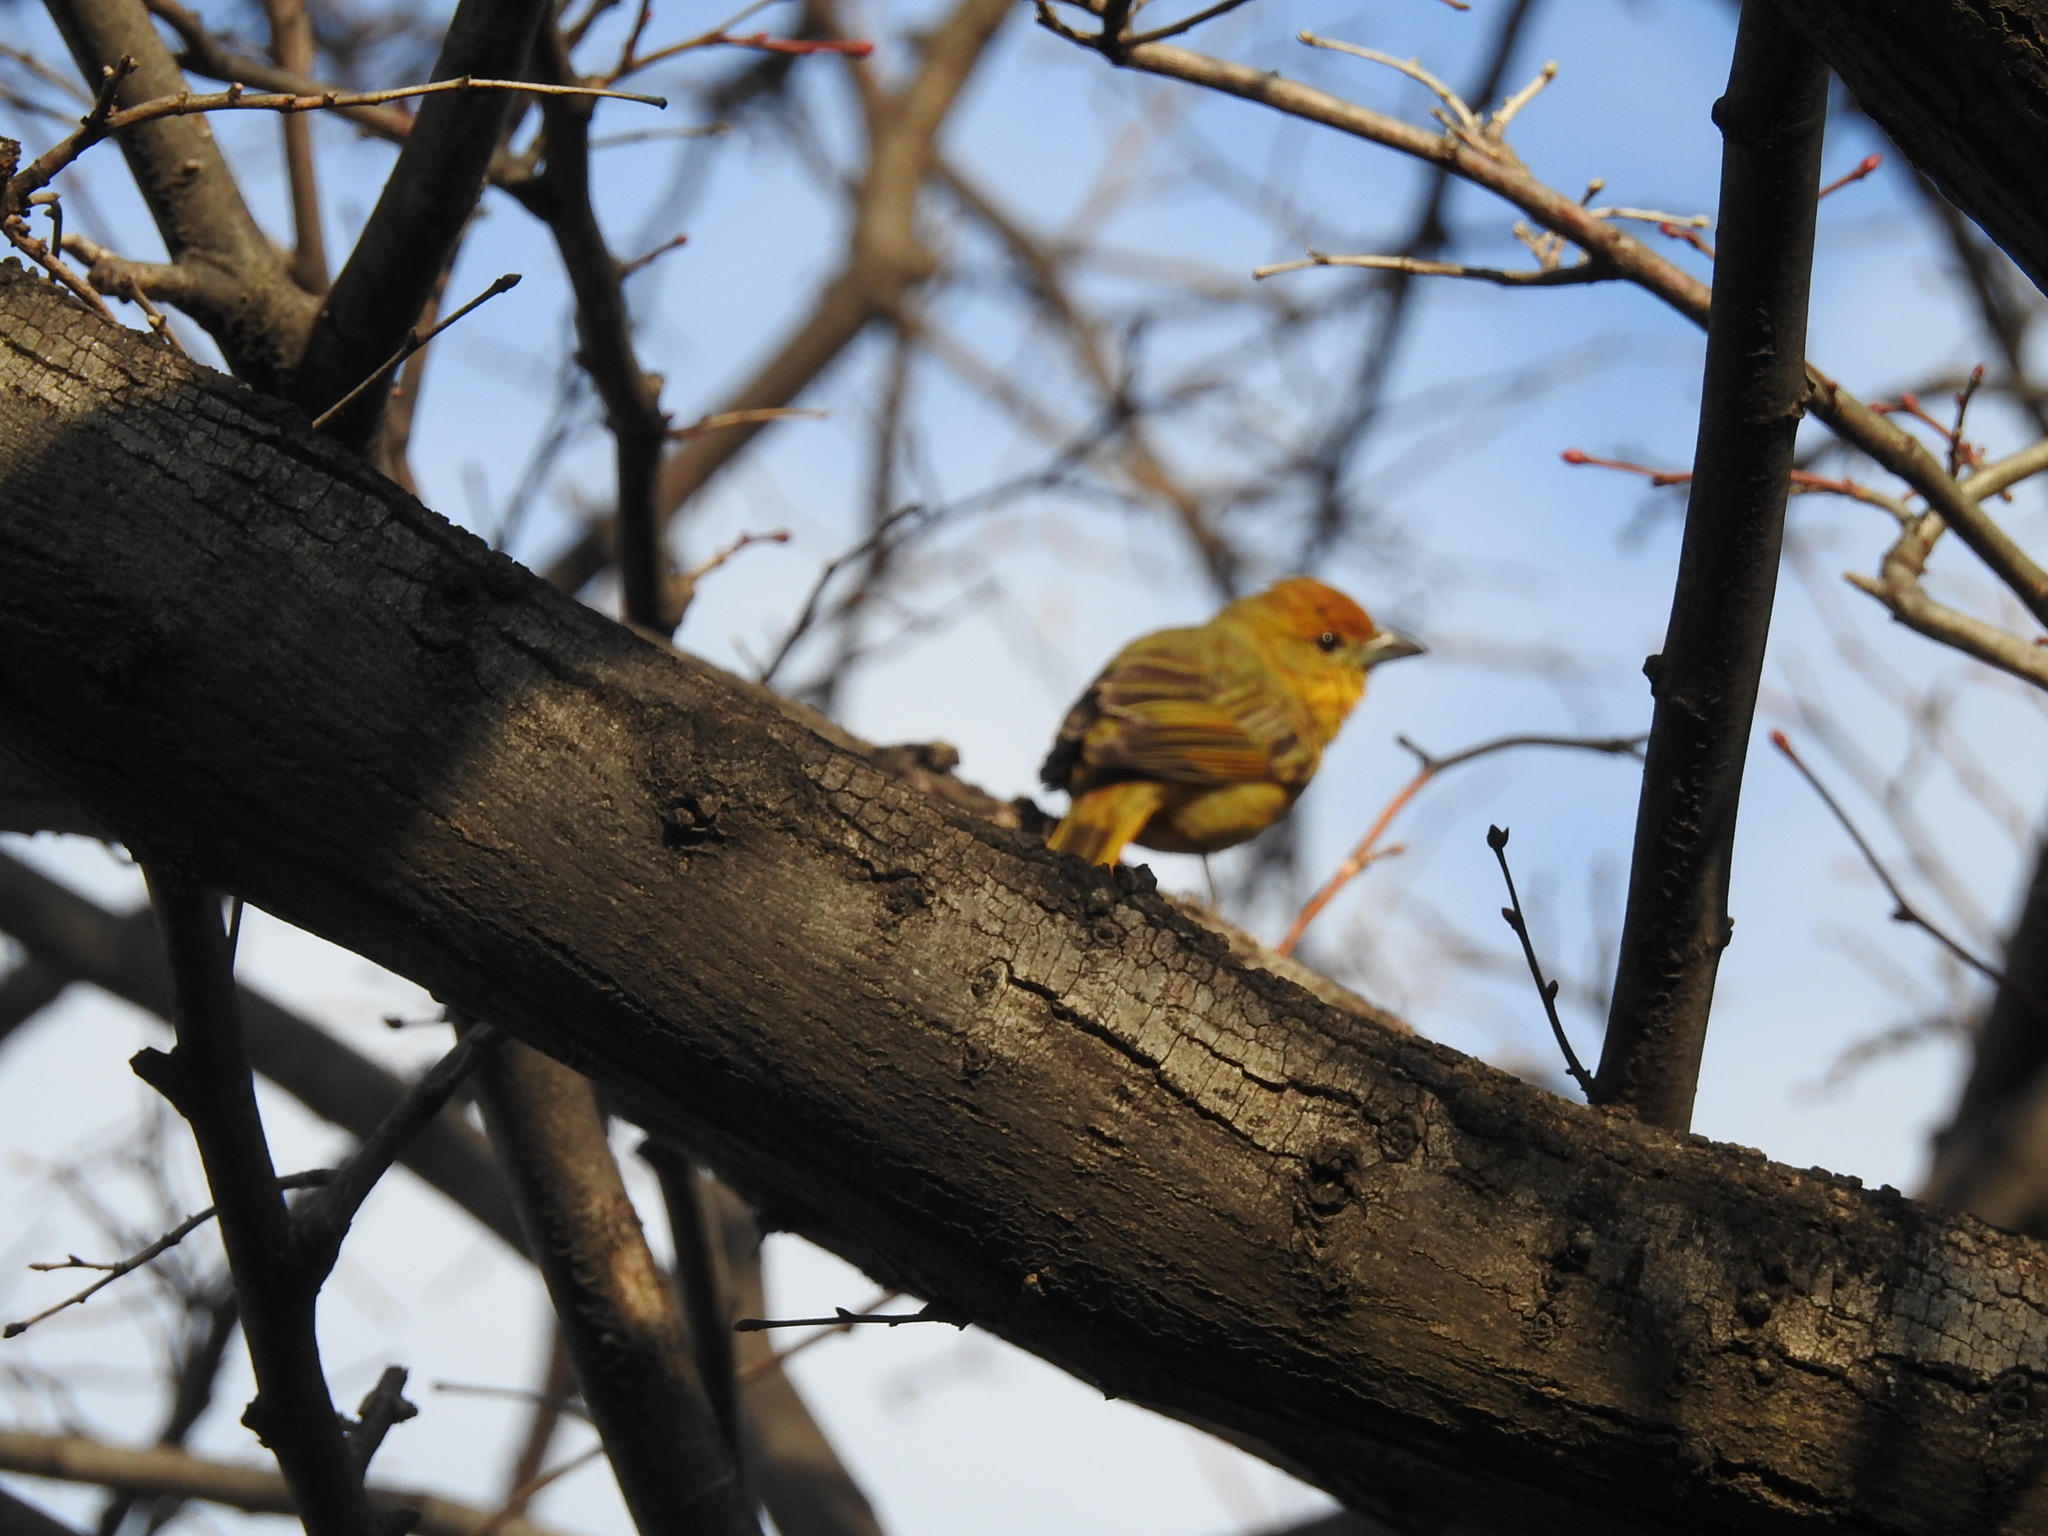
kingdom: Animalia
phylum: Chordata
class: Aves
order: Passeriformes
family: Cardinalidae
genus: Piranga
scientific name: Piranga flava
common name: Red tanager
